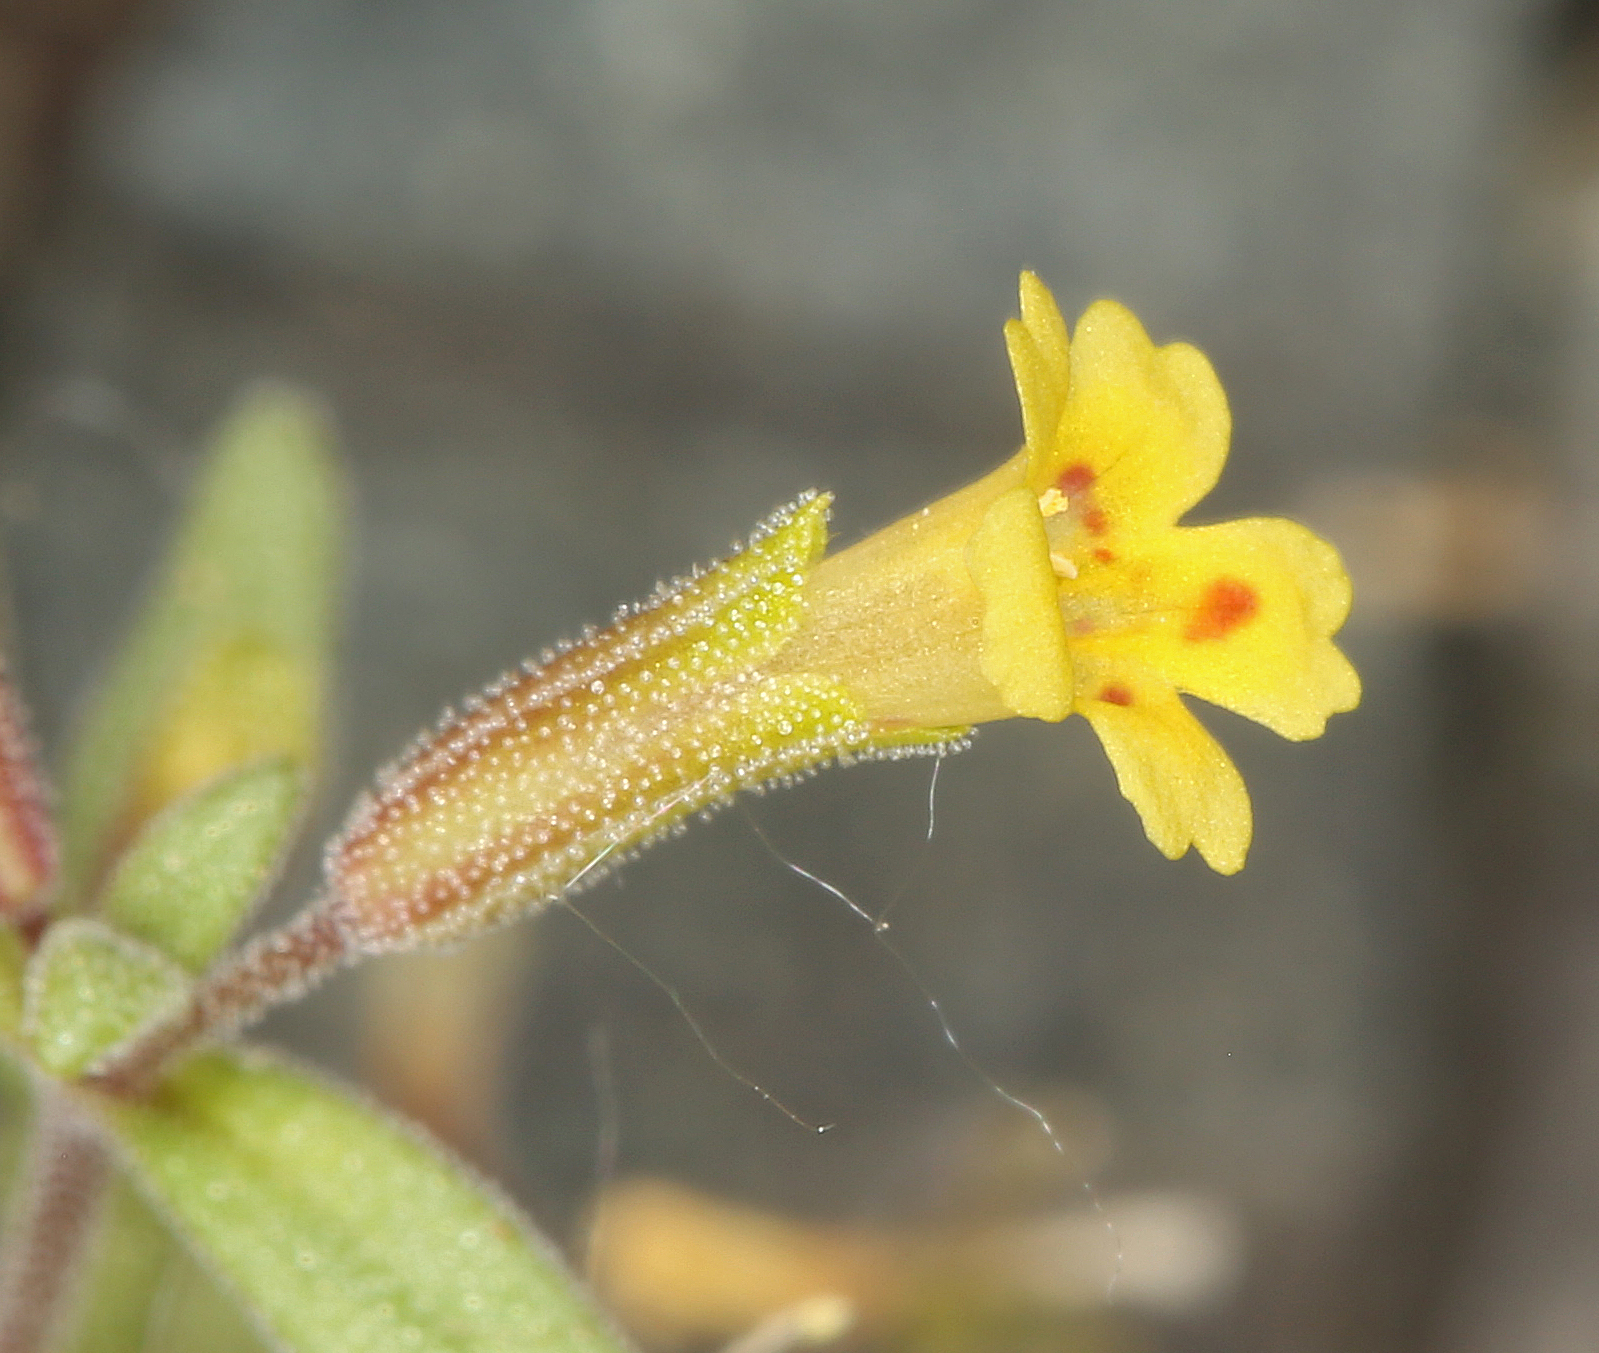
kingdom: Plantae
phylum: Tracheophyta
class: Magnoliopsida
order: Lamiales
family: Phrymaceae
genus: Erythranthe
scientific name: Erythranthe rubella
